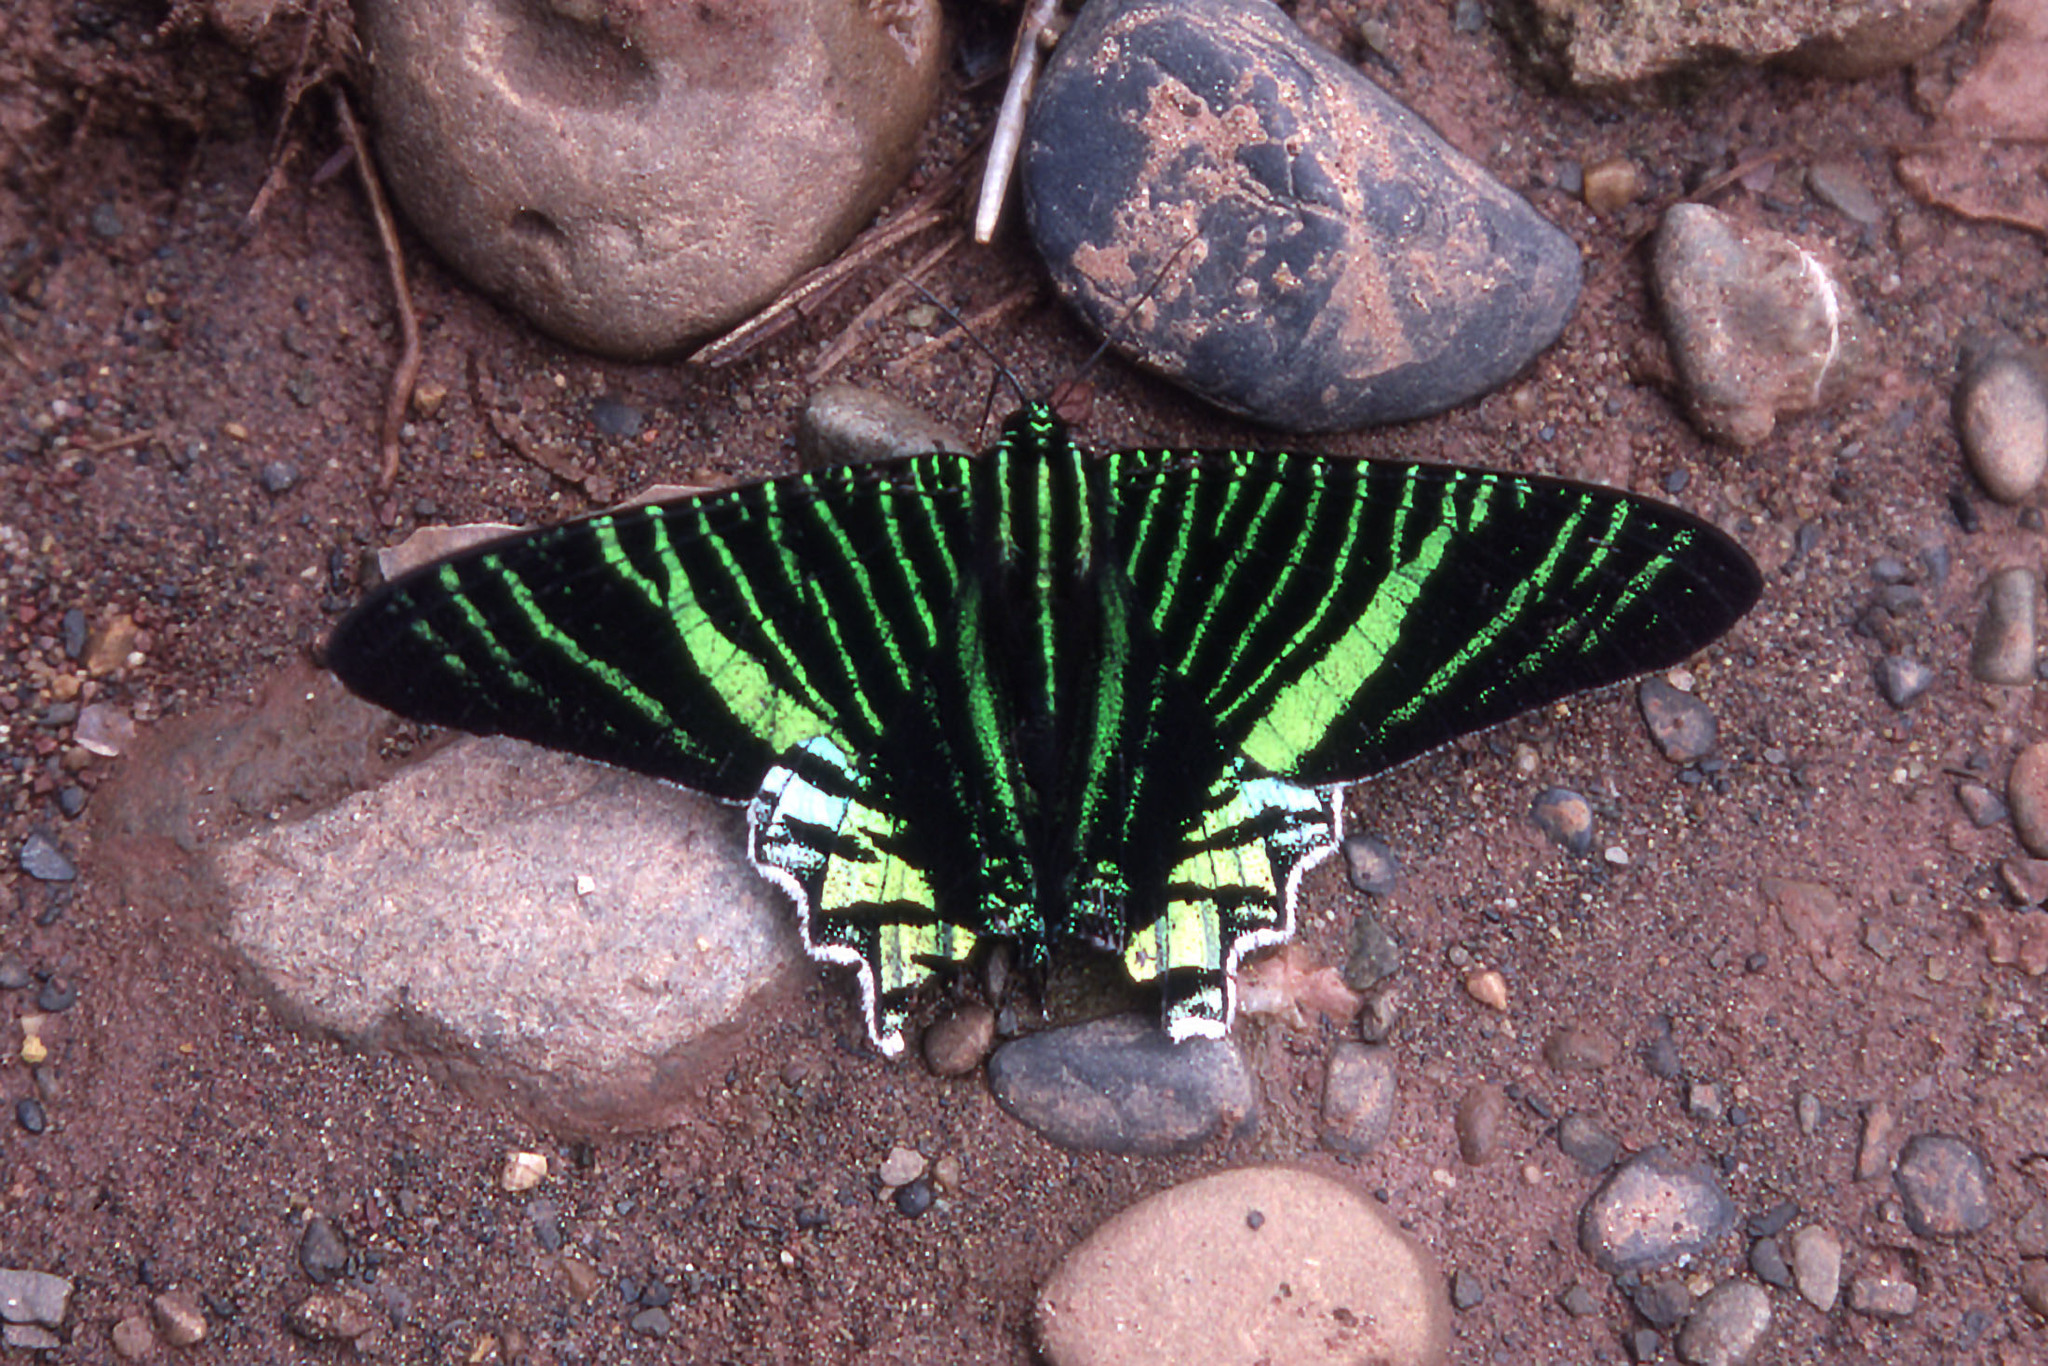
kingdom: Animalia
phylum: Arthropoda
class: Insecta
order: Lepidoptera
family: Uraniidae
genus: Urania
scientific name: Urania leilus
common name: Peacock moth
